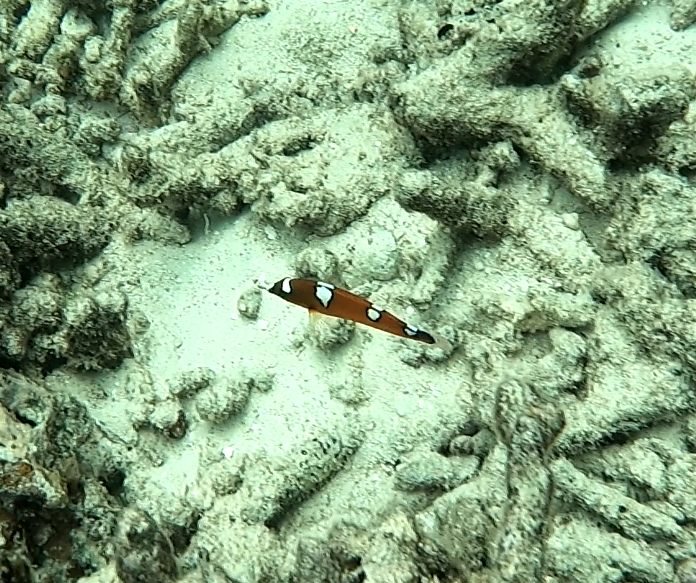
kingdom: Animalia
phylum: Chordata
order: Perciformes
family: Labridae
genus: Coris
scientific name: Coris gaimard
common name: Yellowtail coris
